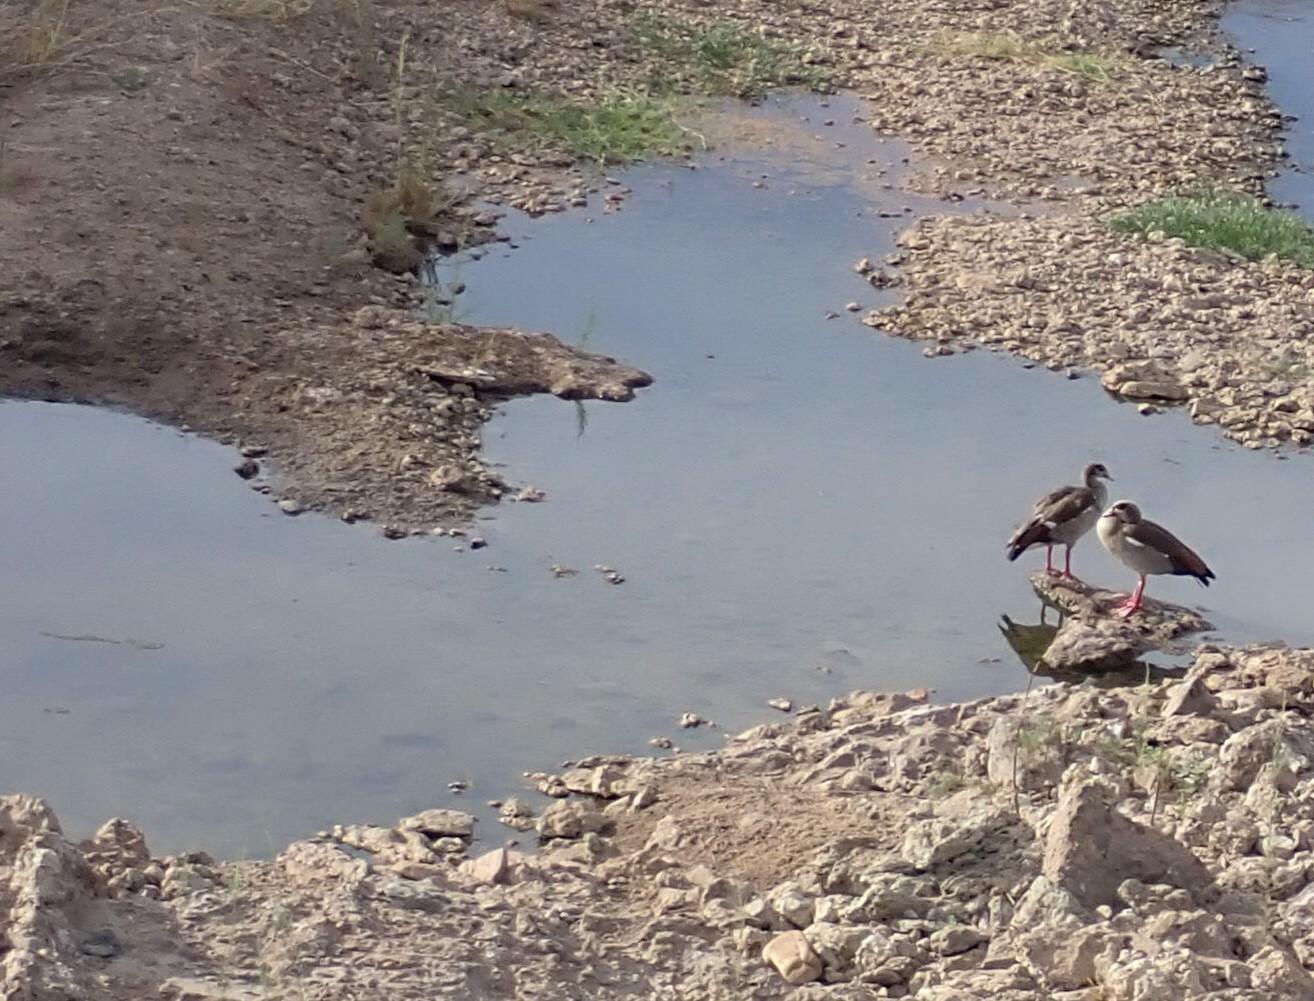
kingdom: Animalia
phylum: Chordata
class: Aves
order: Anseriformes
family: Anatidae
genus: Alopochen
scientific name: Alopochen aegyptiaca
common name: Egyptian goose
